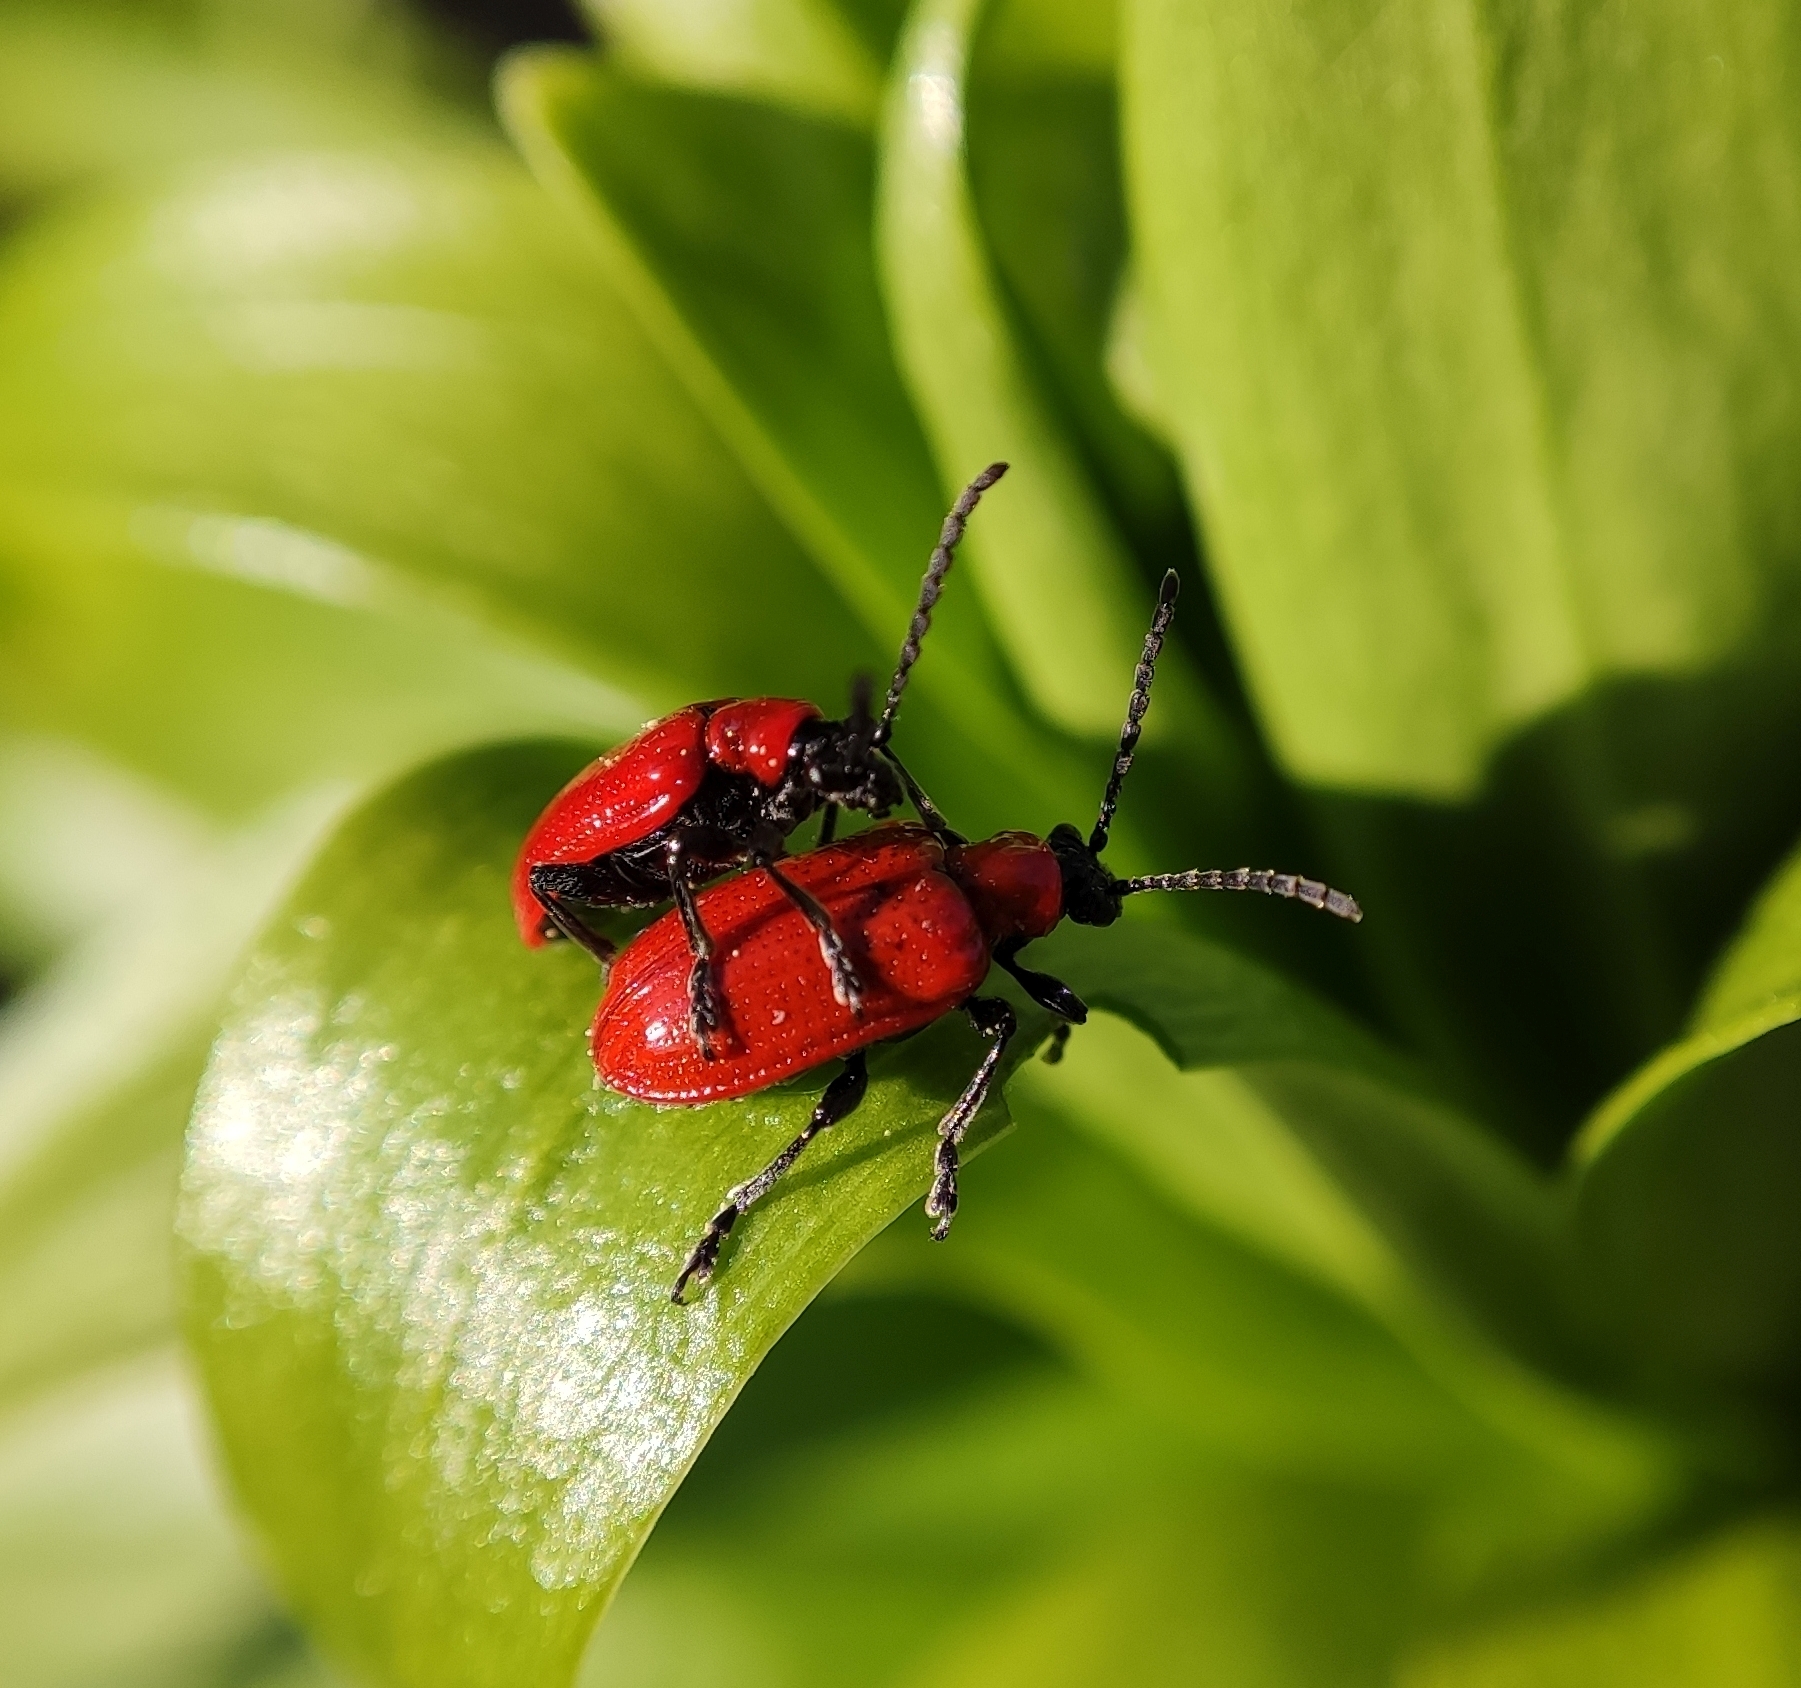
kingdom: Animalia
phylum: Arthropoda
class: Insecta
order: Coleoptera
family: Chrysomelidae
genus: Lilioceris
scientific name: Lilioceris lilii
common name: Lily beetle
